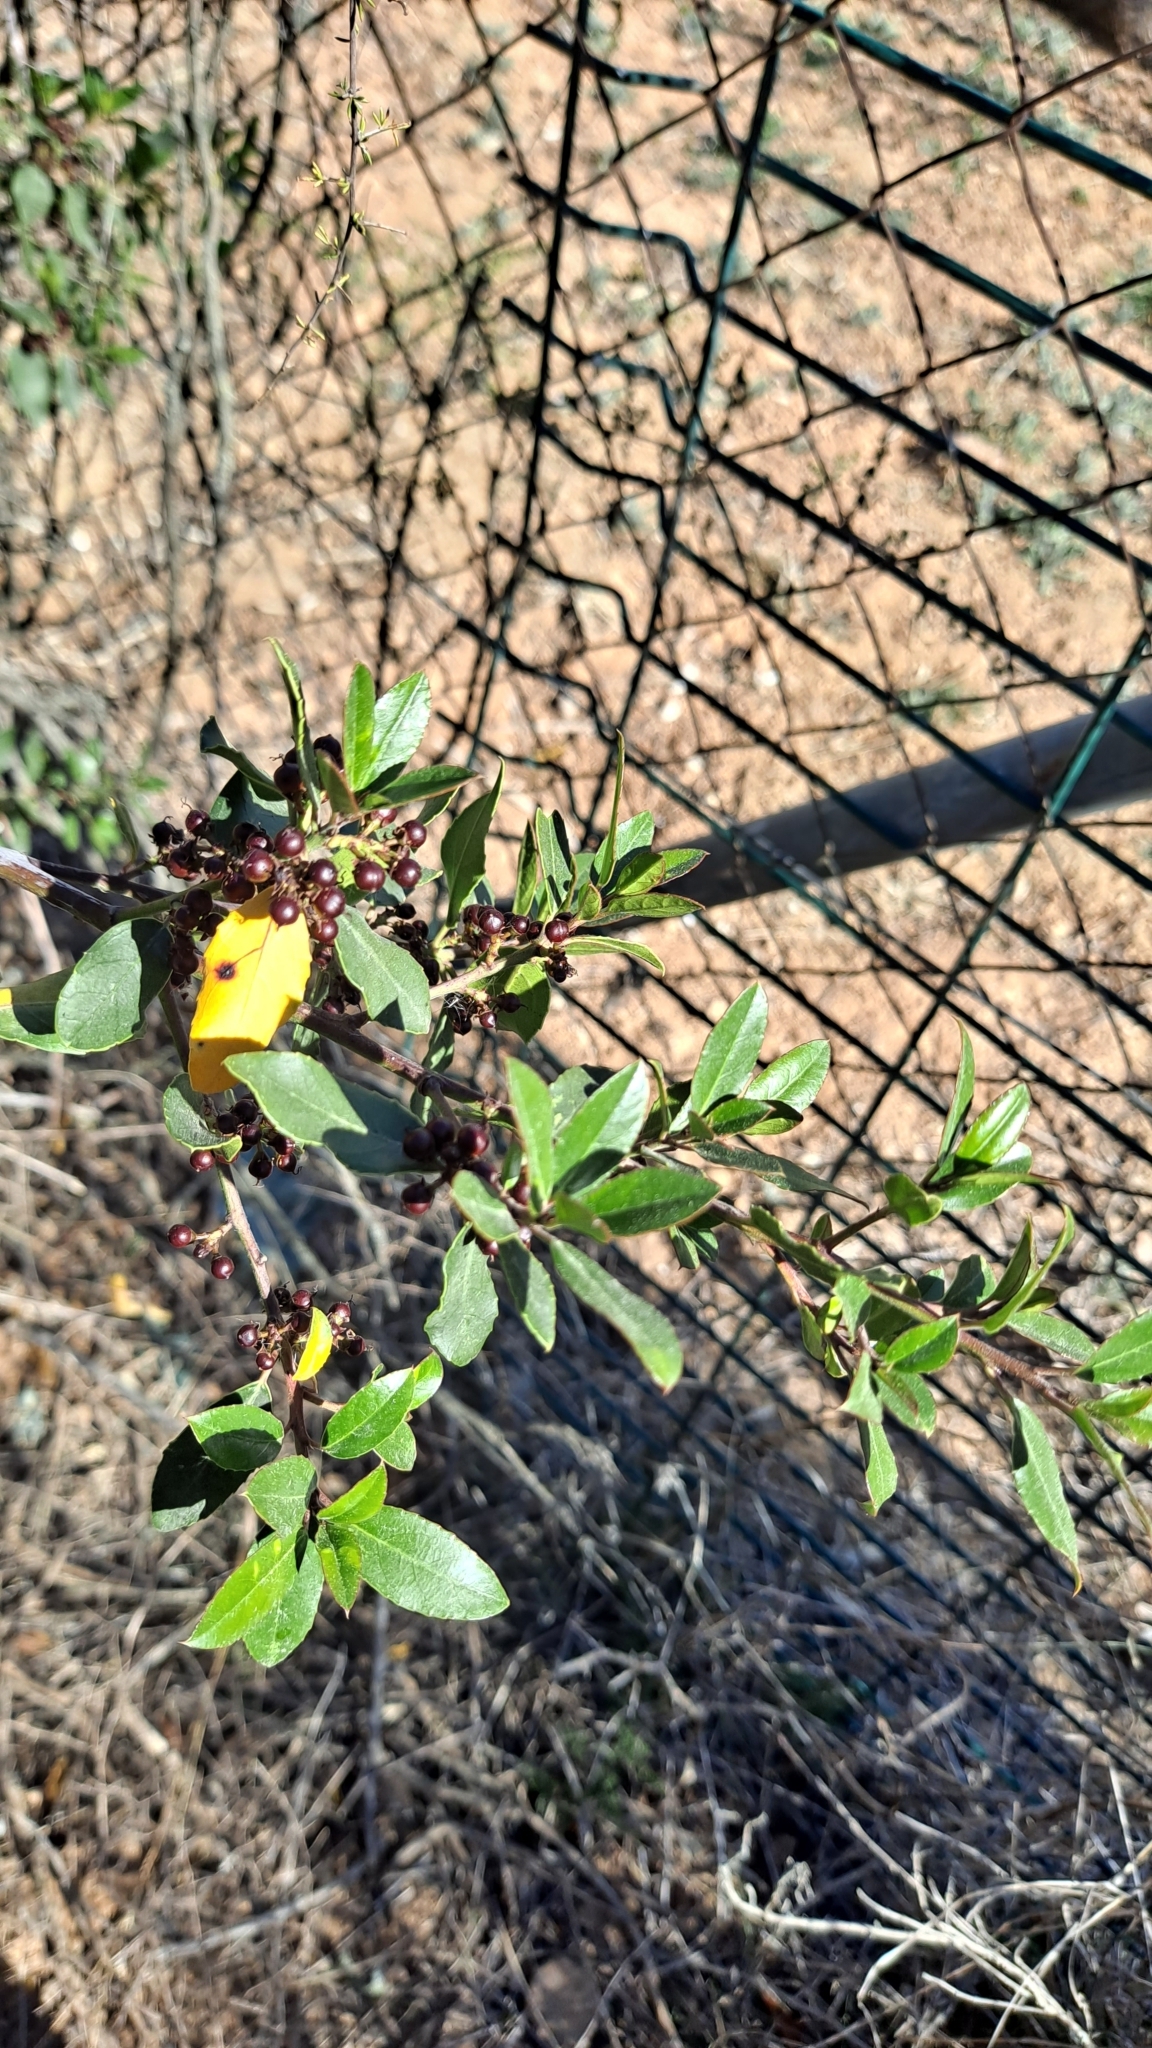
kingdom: Plantae
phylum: Tracheophyta
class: Magnoliopsida
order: Rosales
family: Rhamnaceae
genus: Rhamnus
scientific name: Rhamnus alaternus
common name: Mediterranean buckthorn
